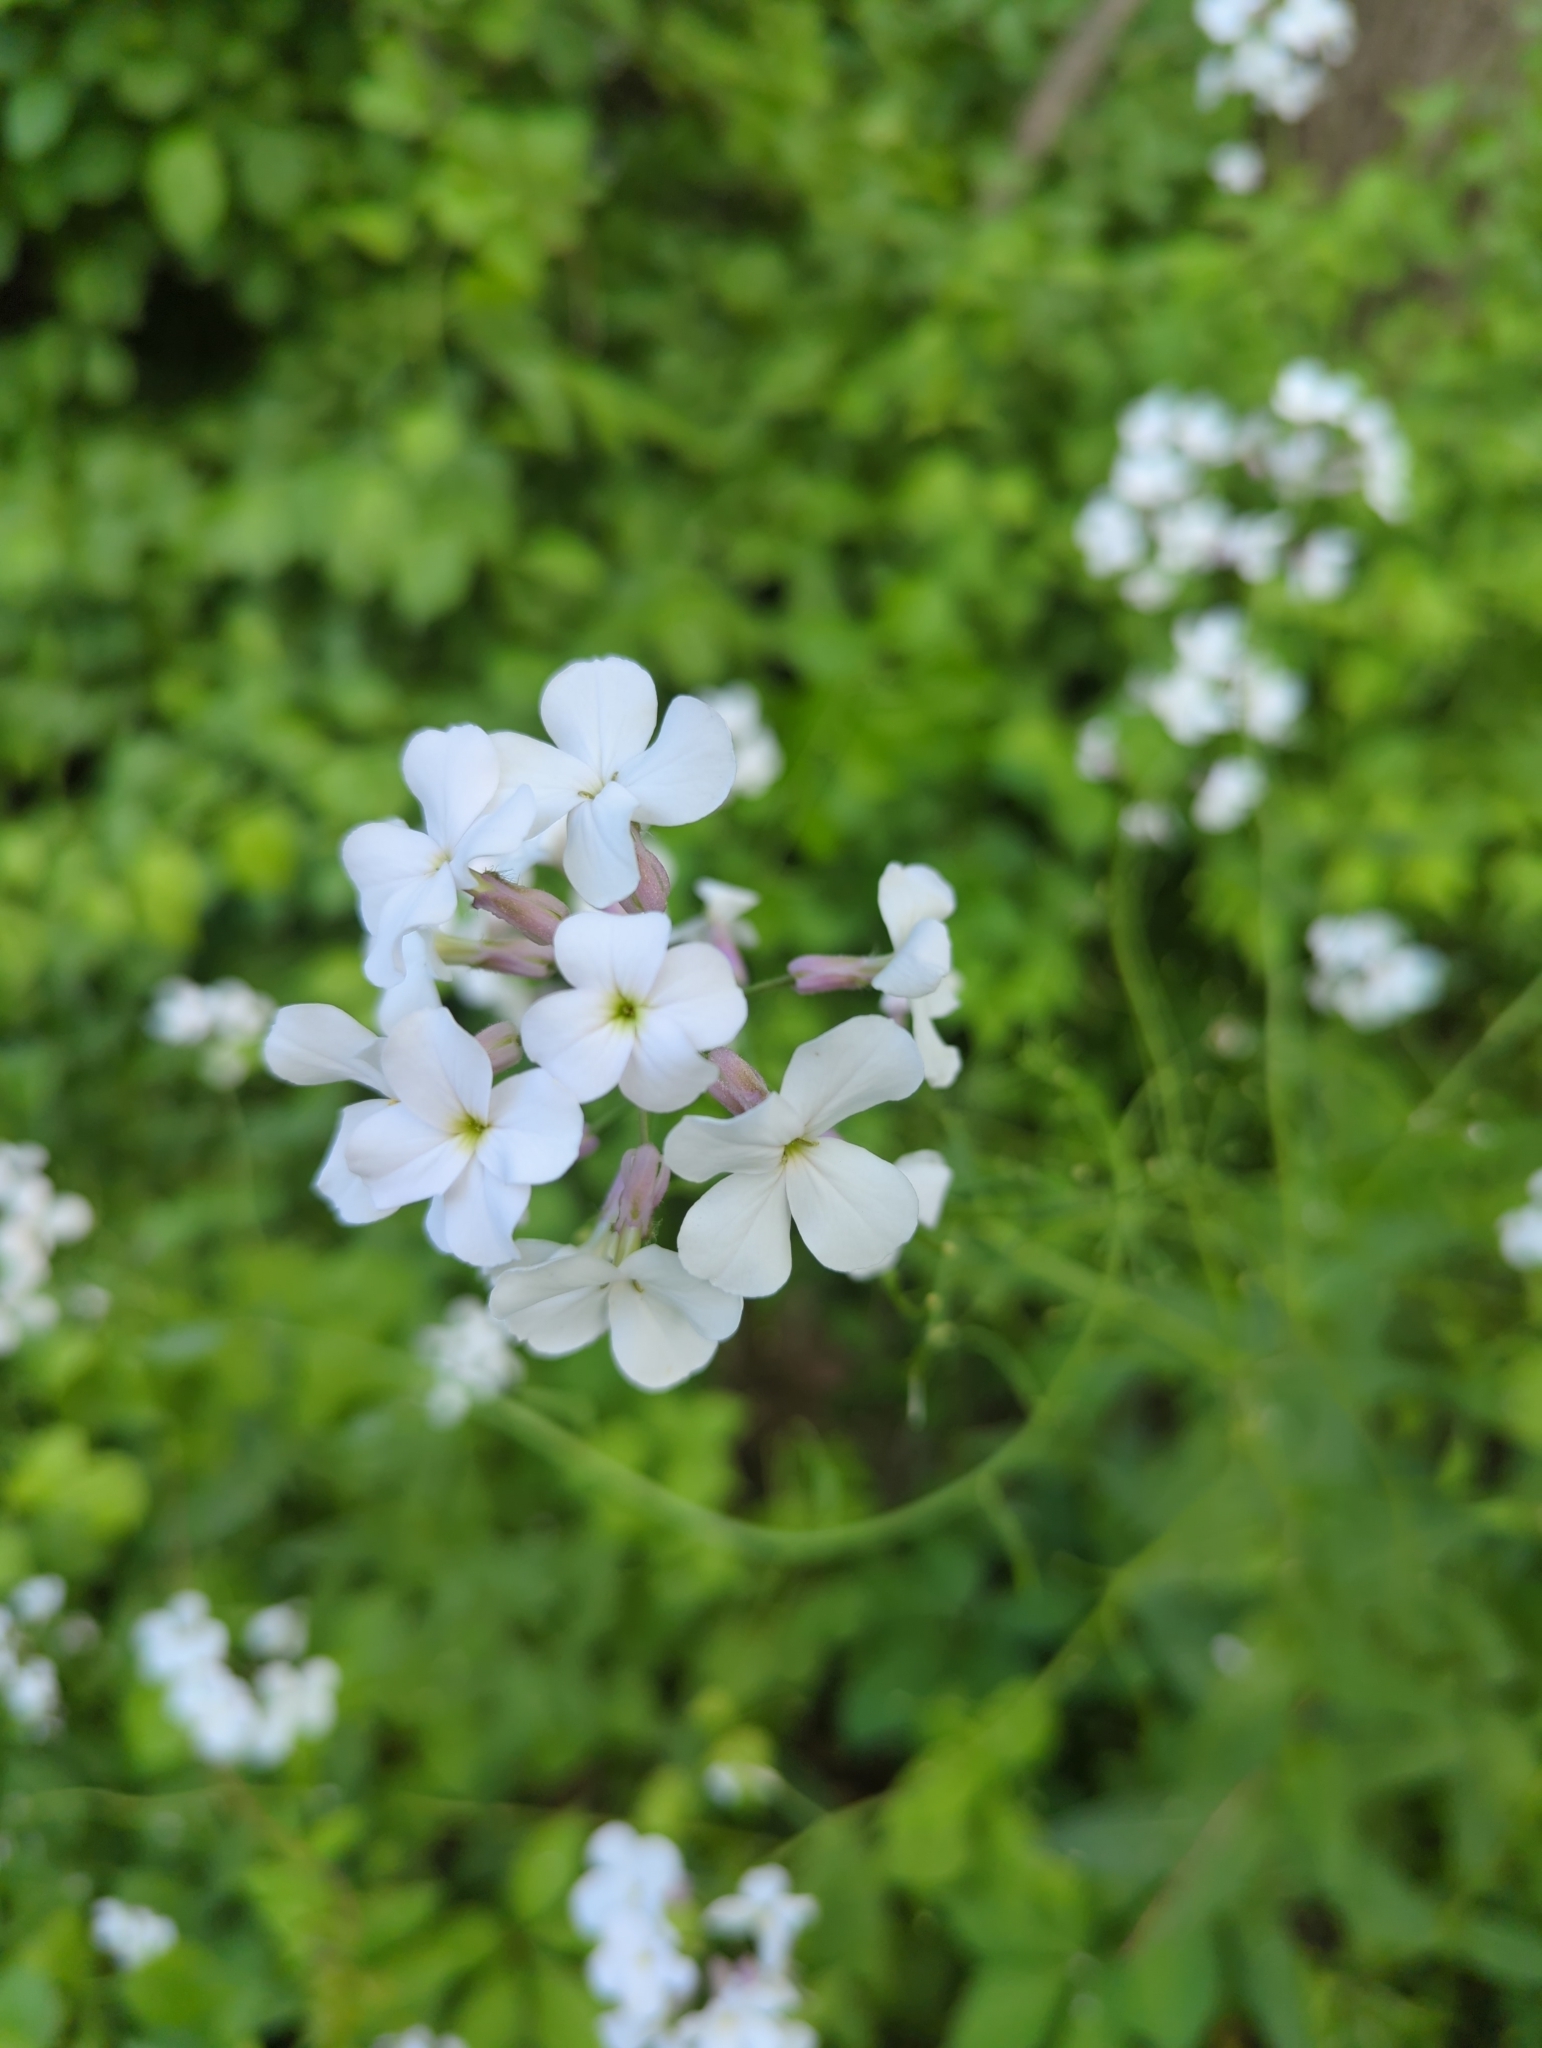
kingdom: Plantae
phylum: Tracheophyta
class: Magnoliopsida
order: Brassicales
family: Brassicaceae
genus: Hesperis
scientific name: Hesperis matronalis
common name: Dame's-violet
